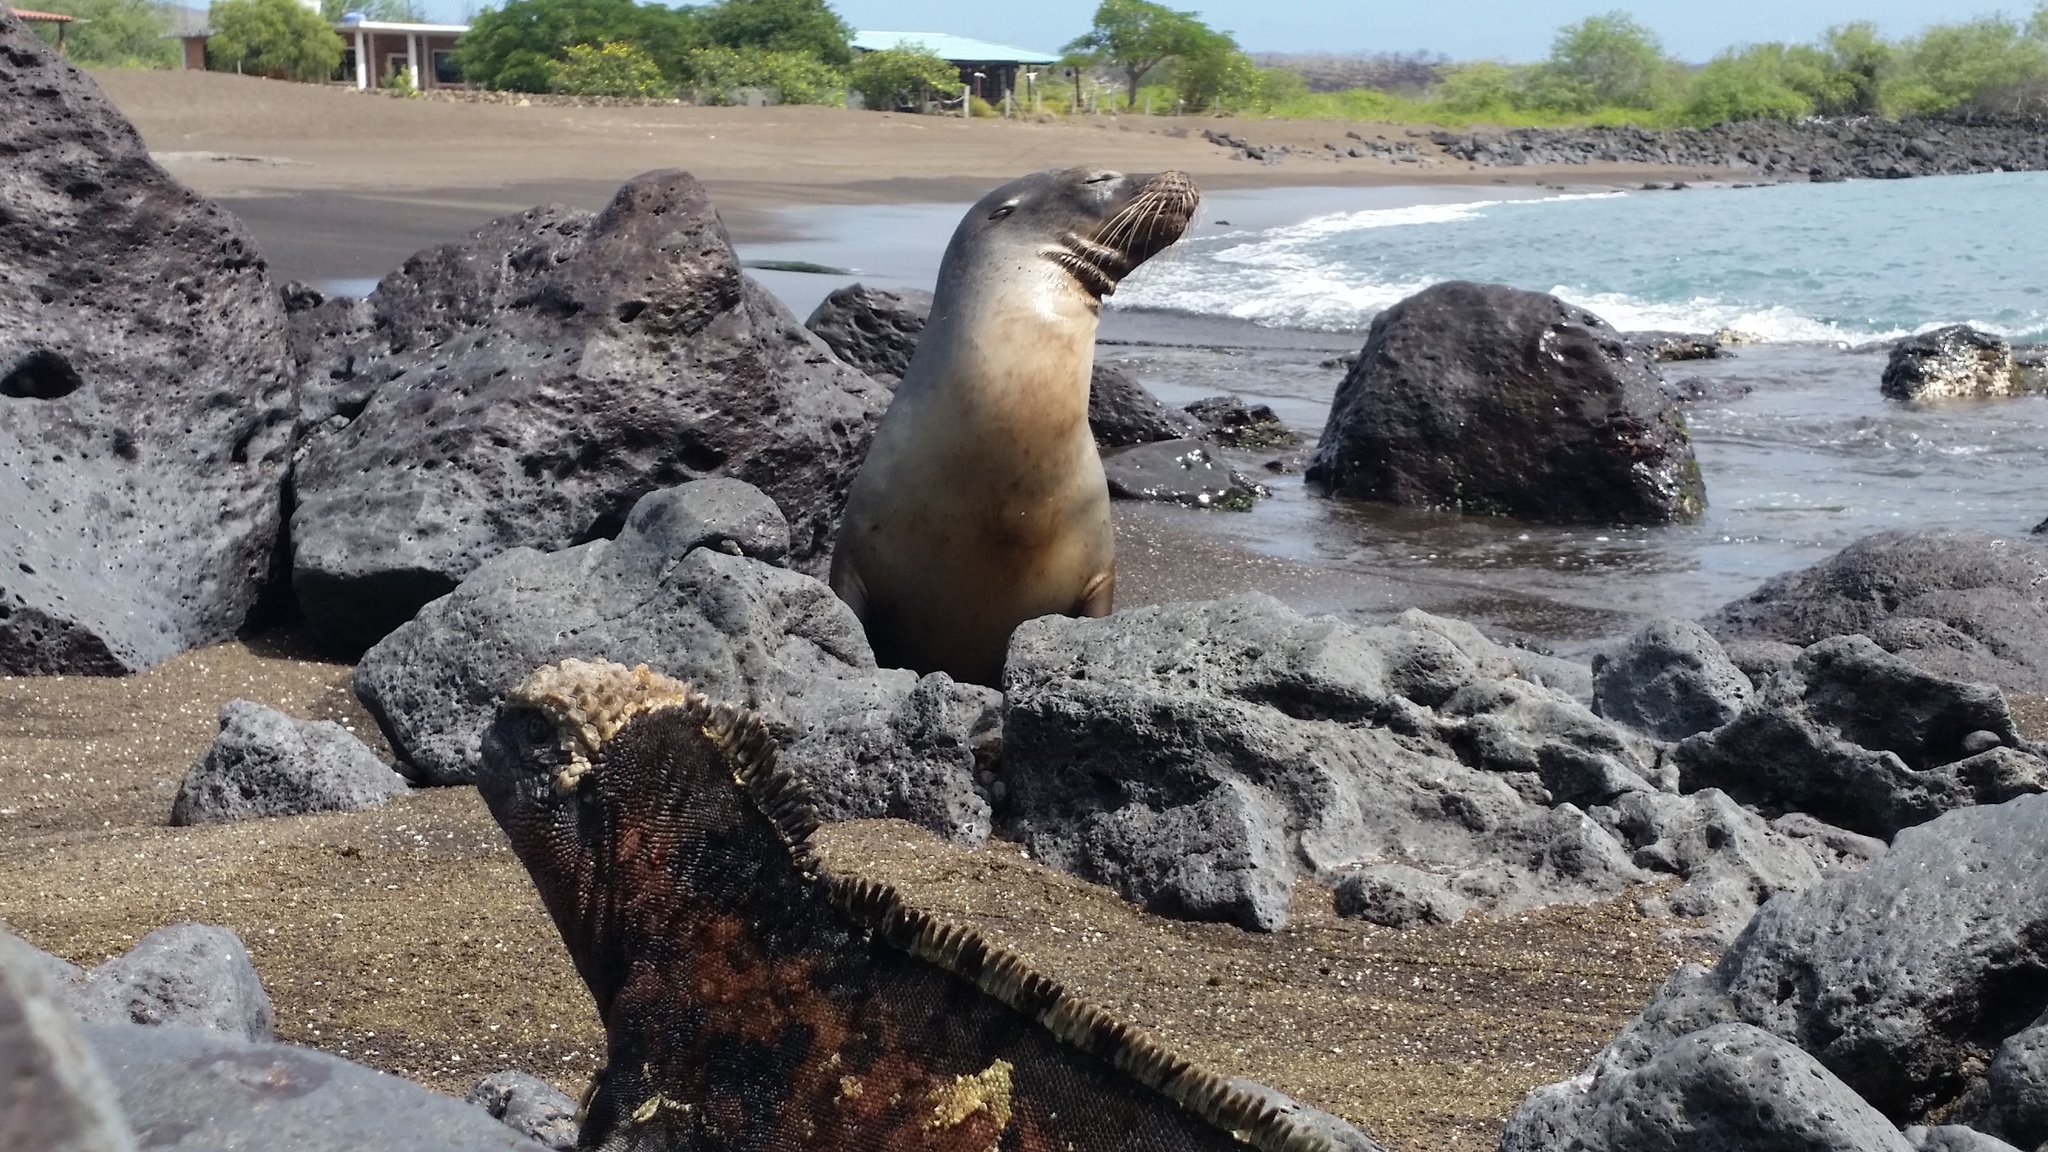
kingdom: Animalia
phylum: Chordata
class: Mammalia
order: Carnivora
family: Otariidae
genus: Zalophus
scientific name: Zalophus wollebaeki
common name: Galapagos sea lion
